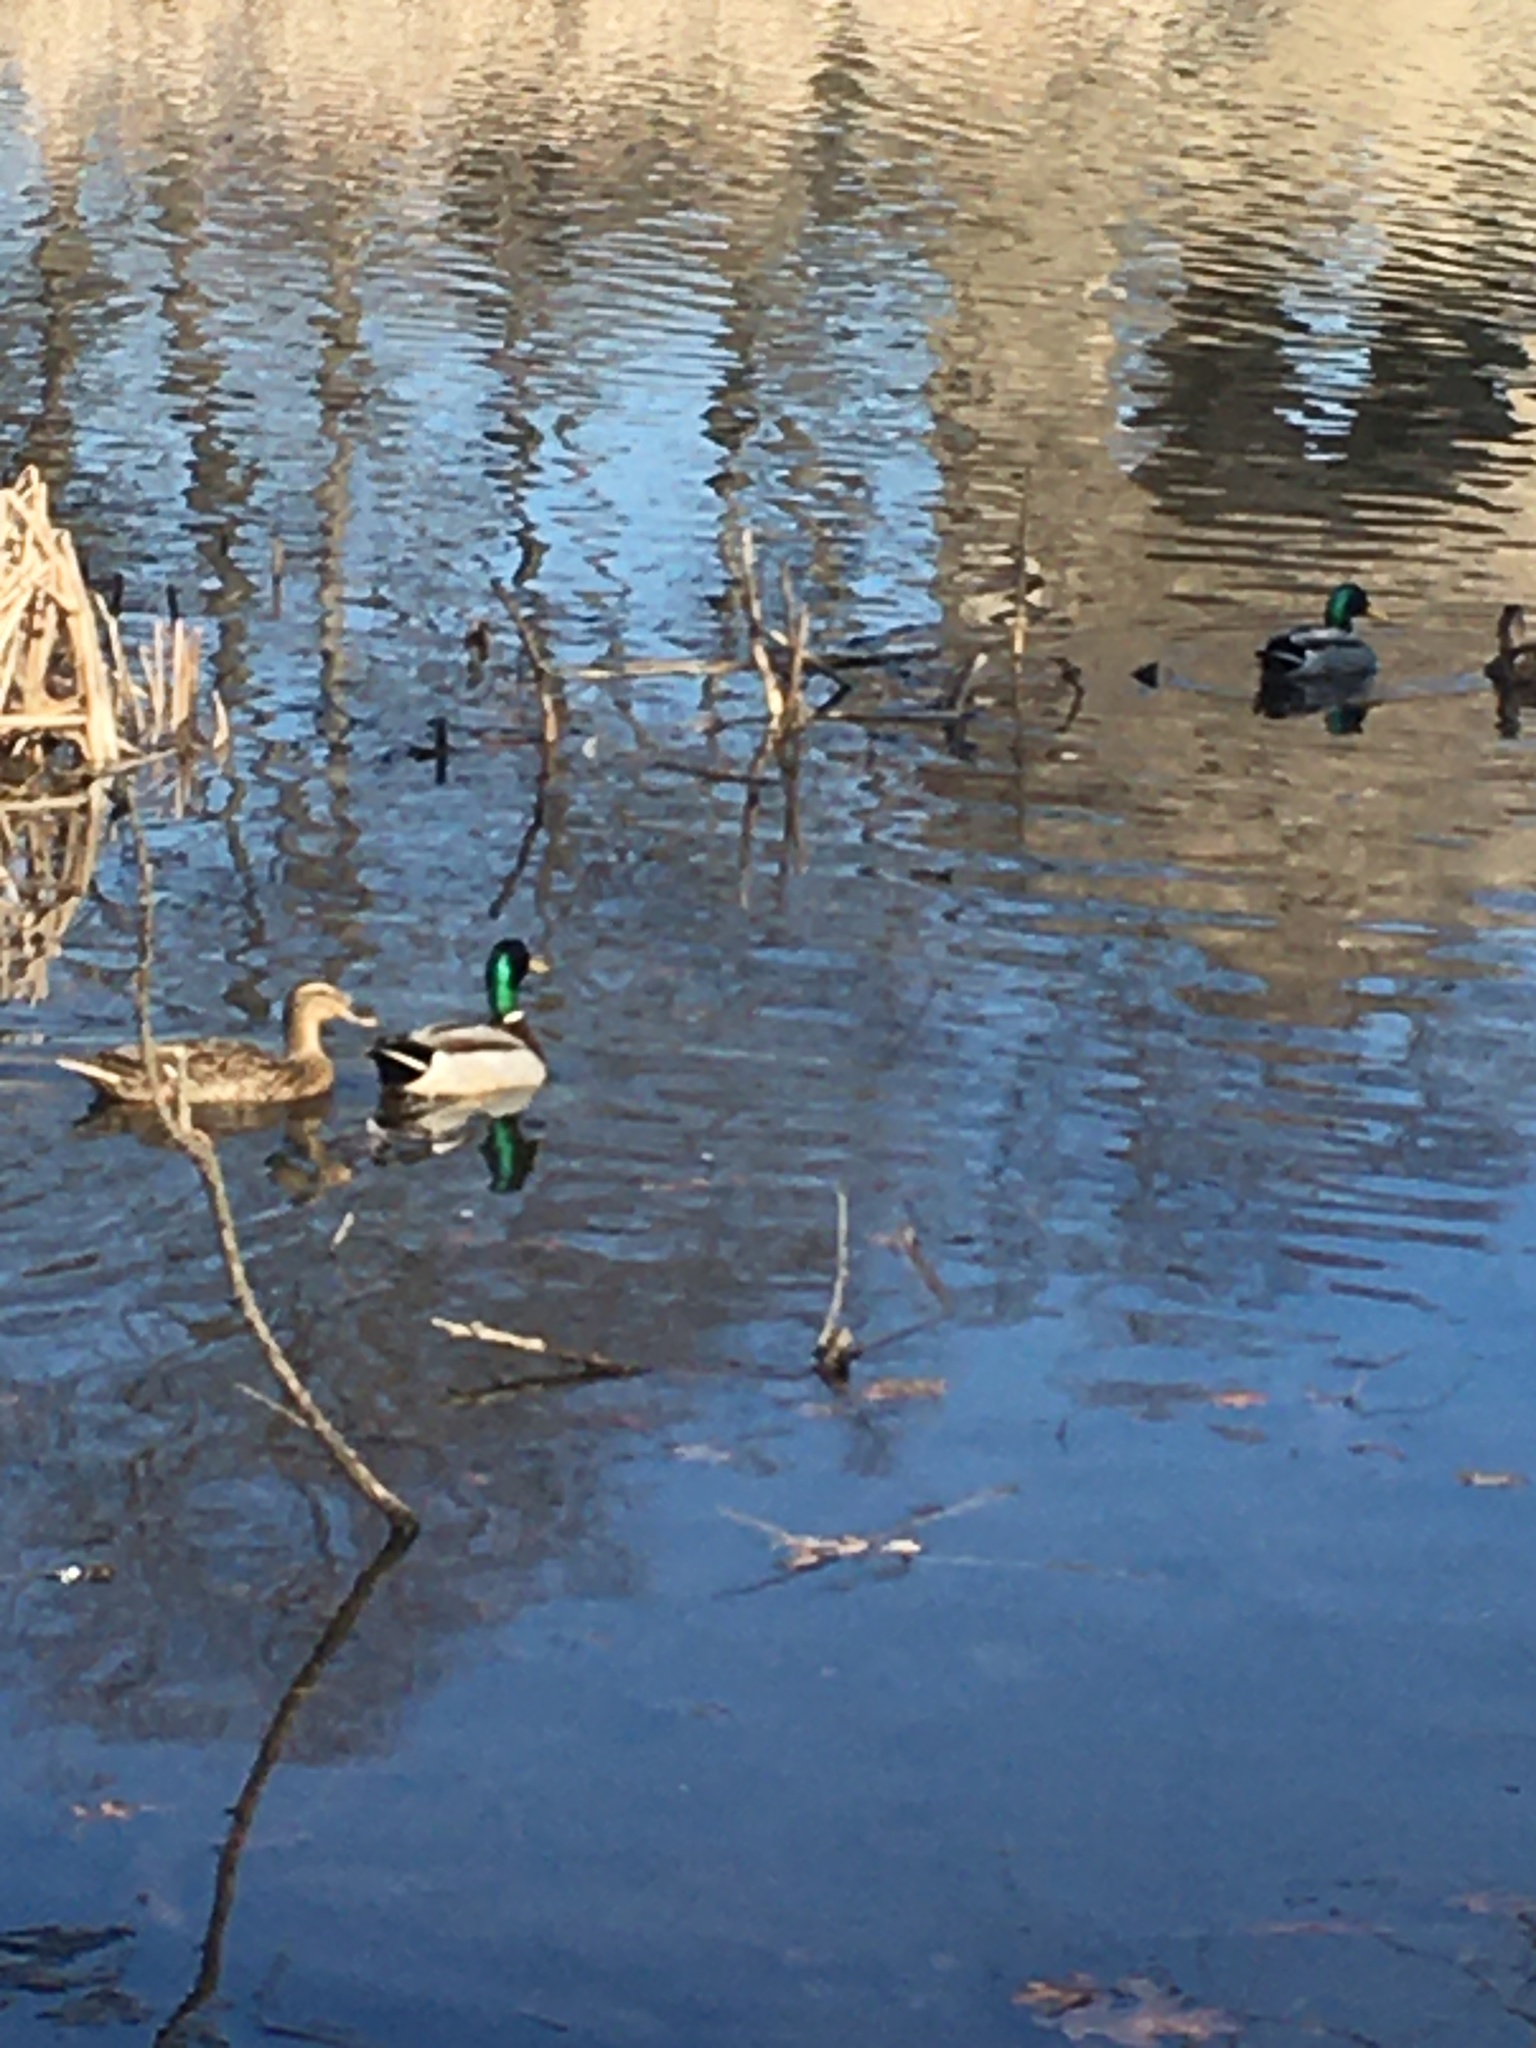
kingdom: Animalia
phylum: Chordata
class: Aves
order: Anseriformes
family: Anatidae
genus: Anas
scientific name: Anas platyrhynchos
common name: Mallard
